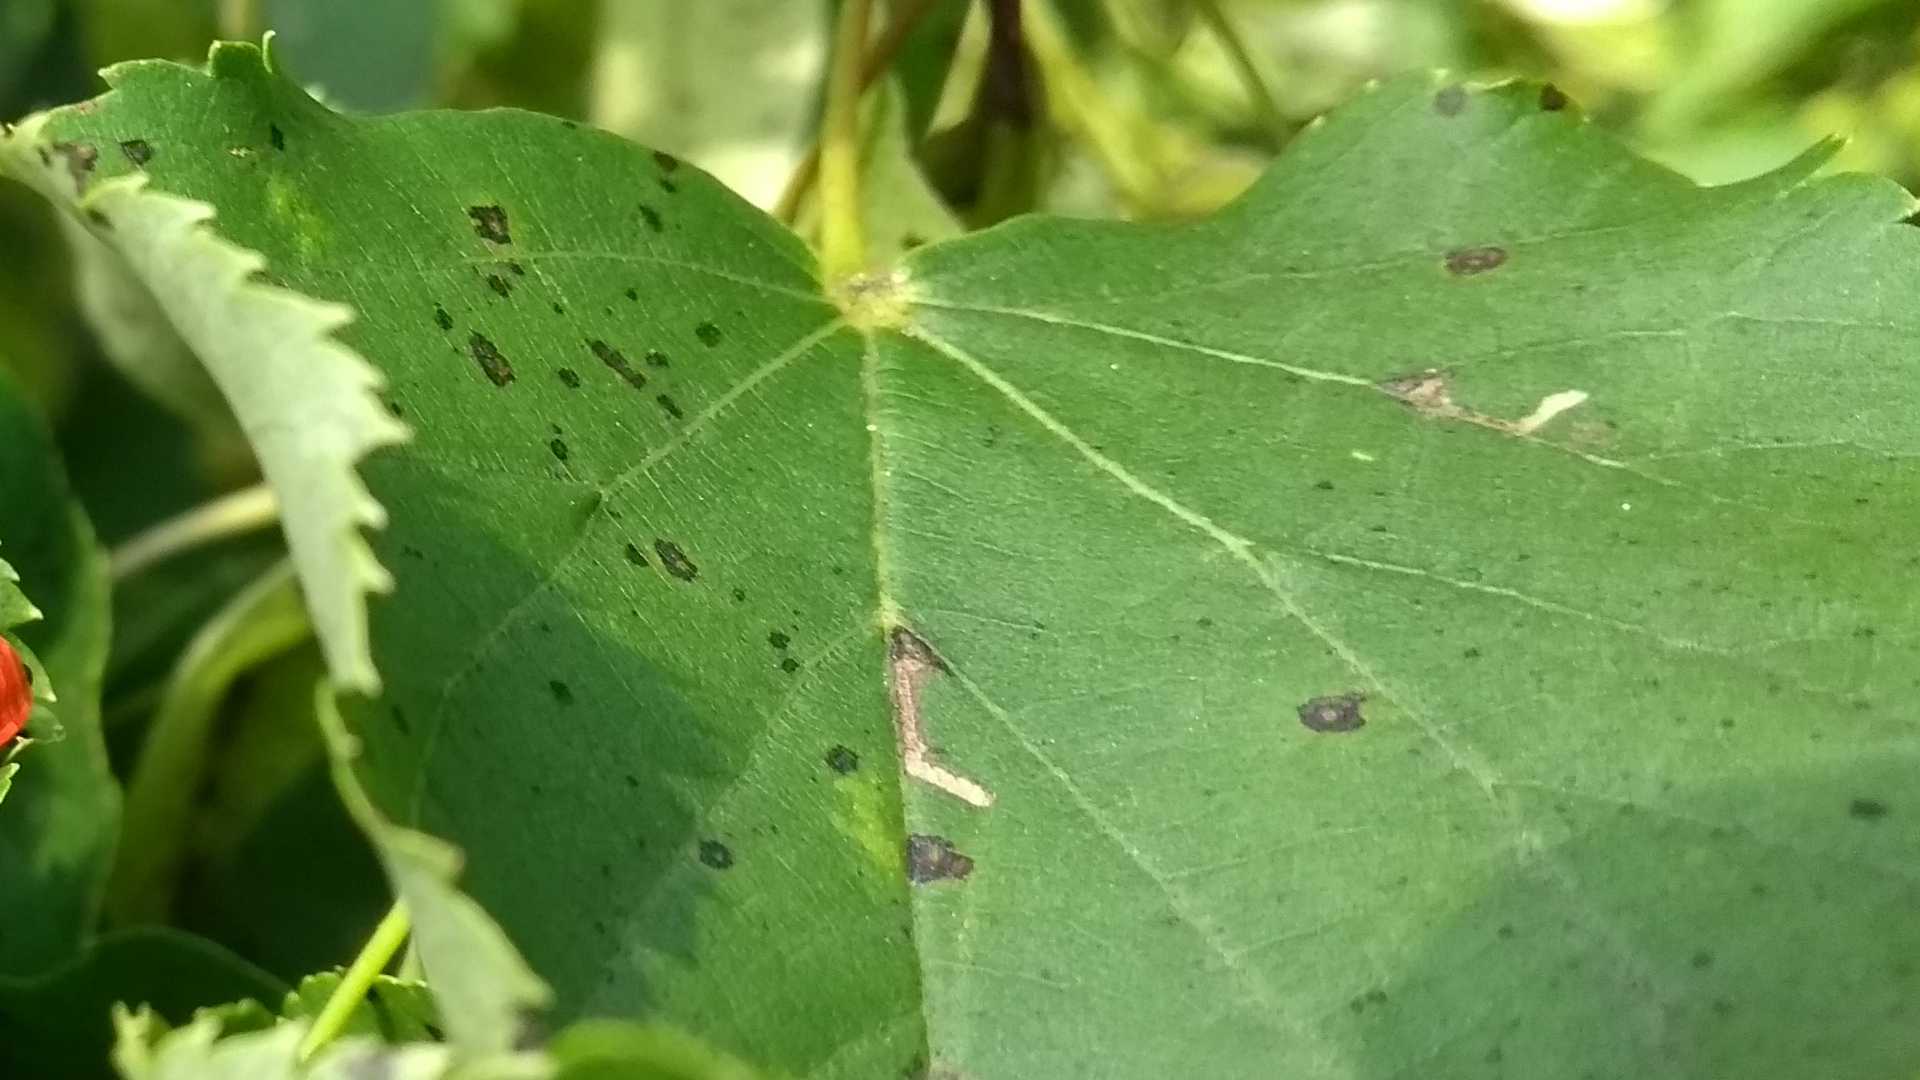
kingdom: Animalia
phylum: Arthropoda
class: Insecta
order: Lepidoptera
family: Bucculatricidae
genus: Bucculatrix
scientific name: Bucculatrix thoracella
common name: Lime bent-wing
